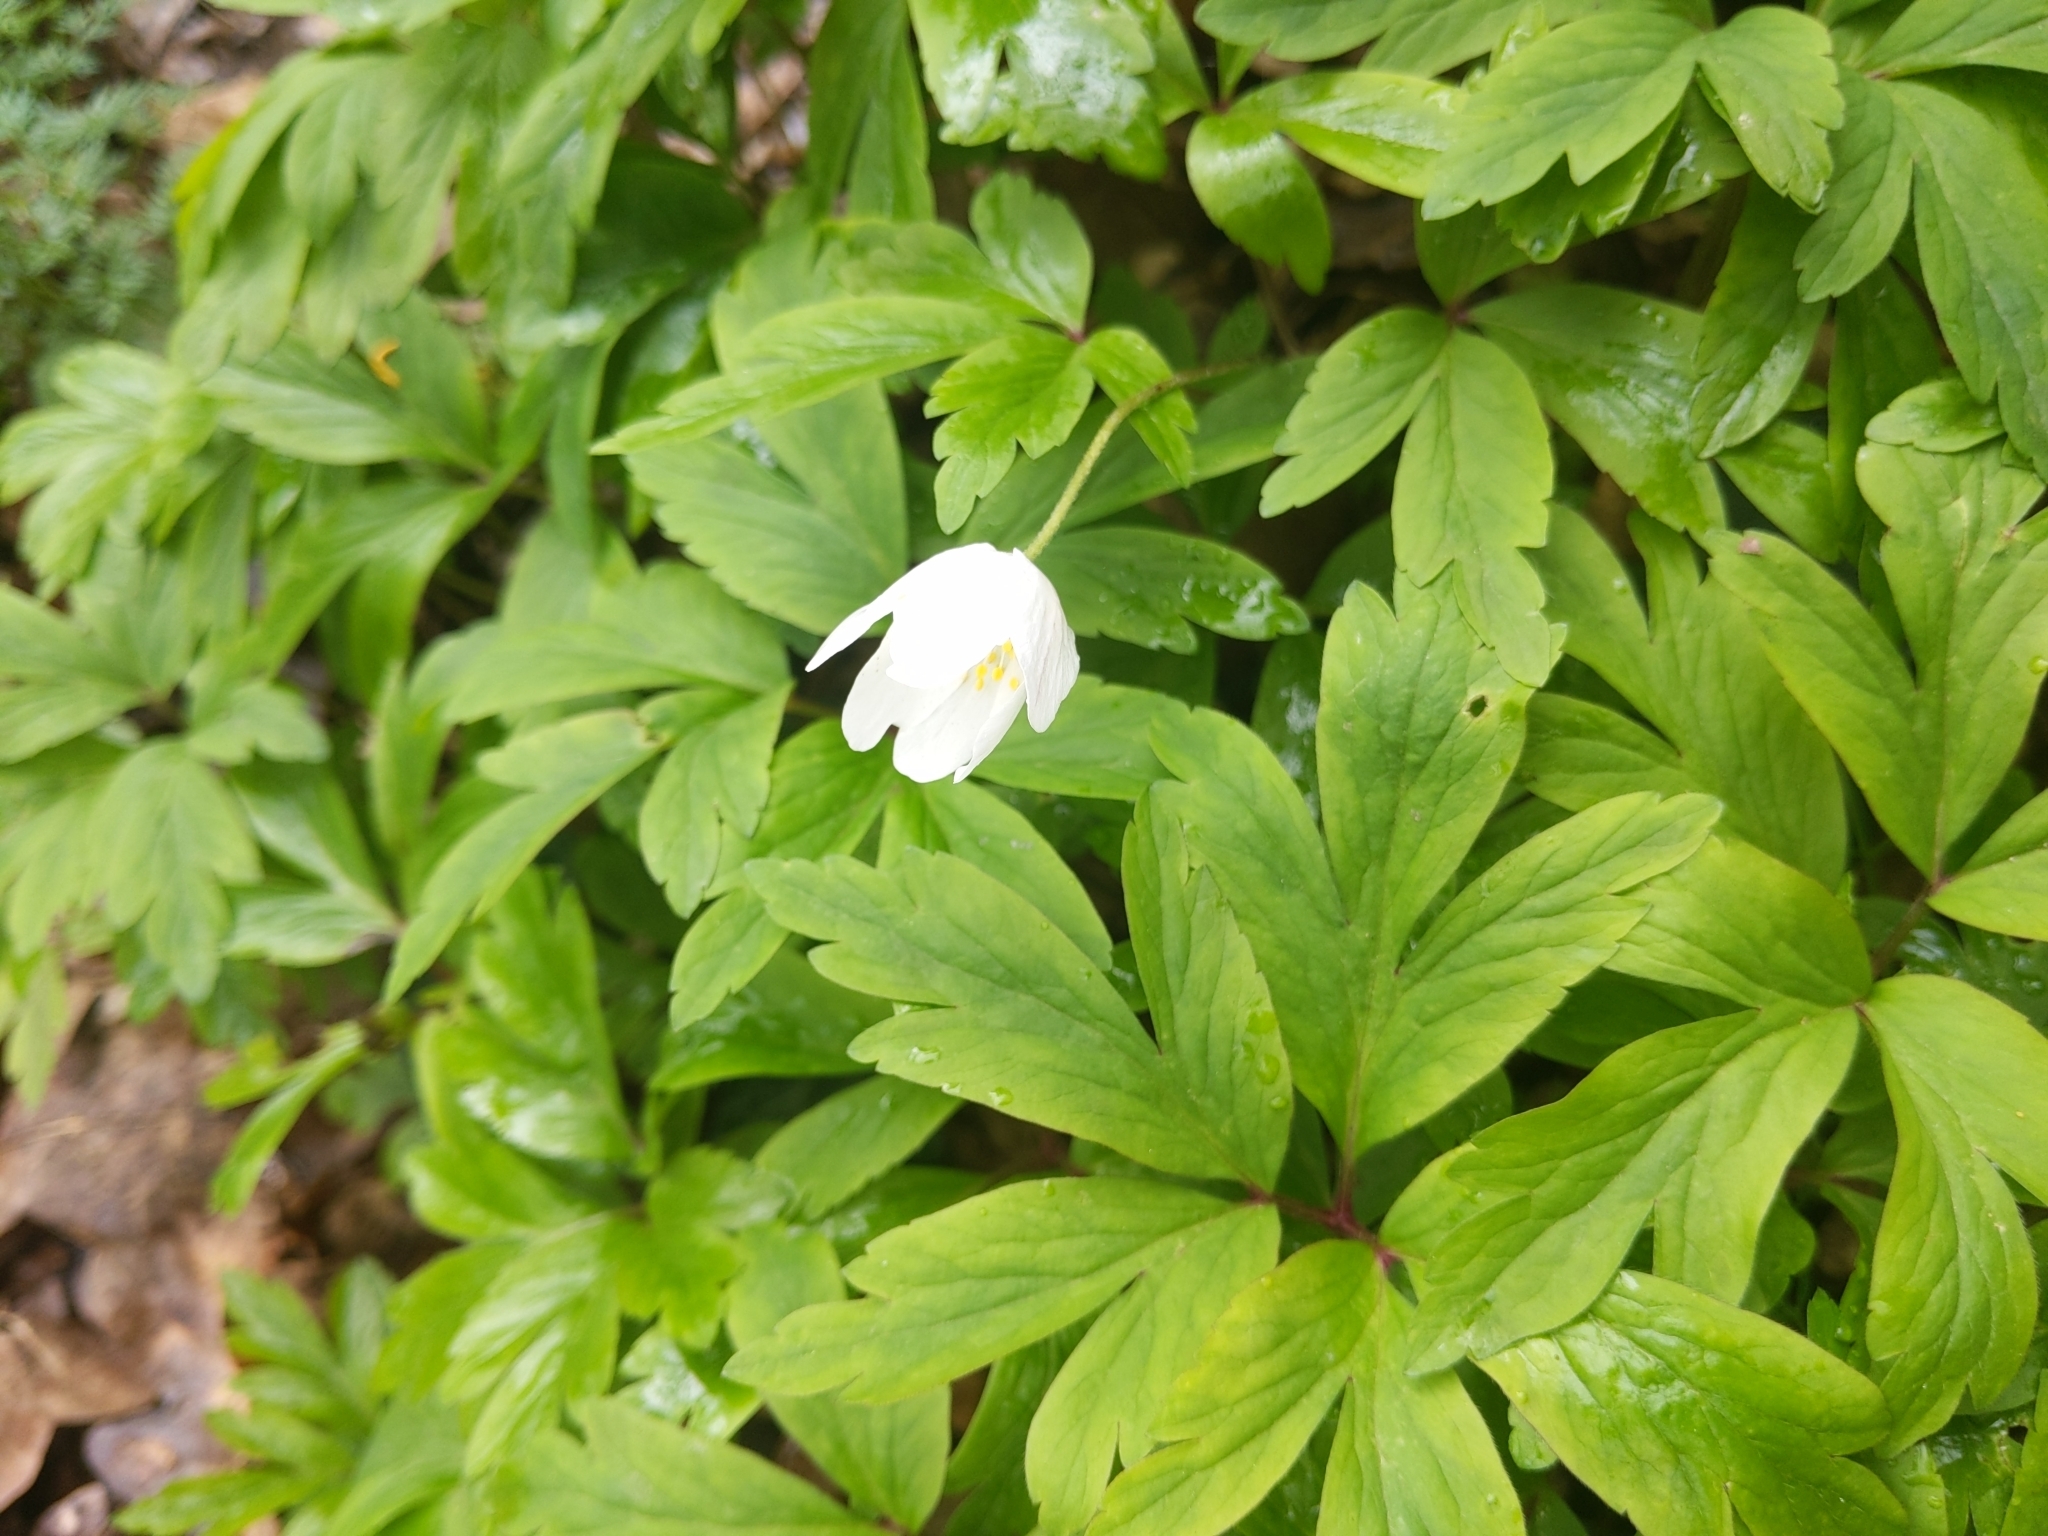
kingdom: Plantae
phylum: Tracheophyta
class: Magnoliopsida
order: Ranunculales
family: Ranunculaceae
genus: Anemone
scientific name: Anemone nemorosa
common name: Wood anemone
